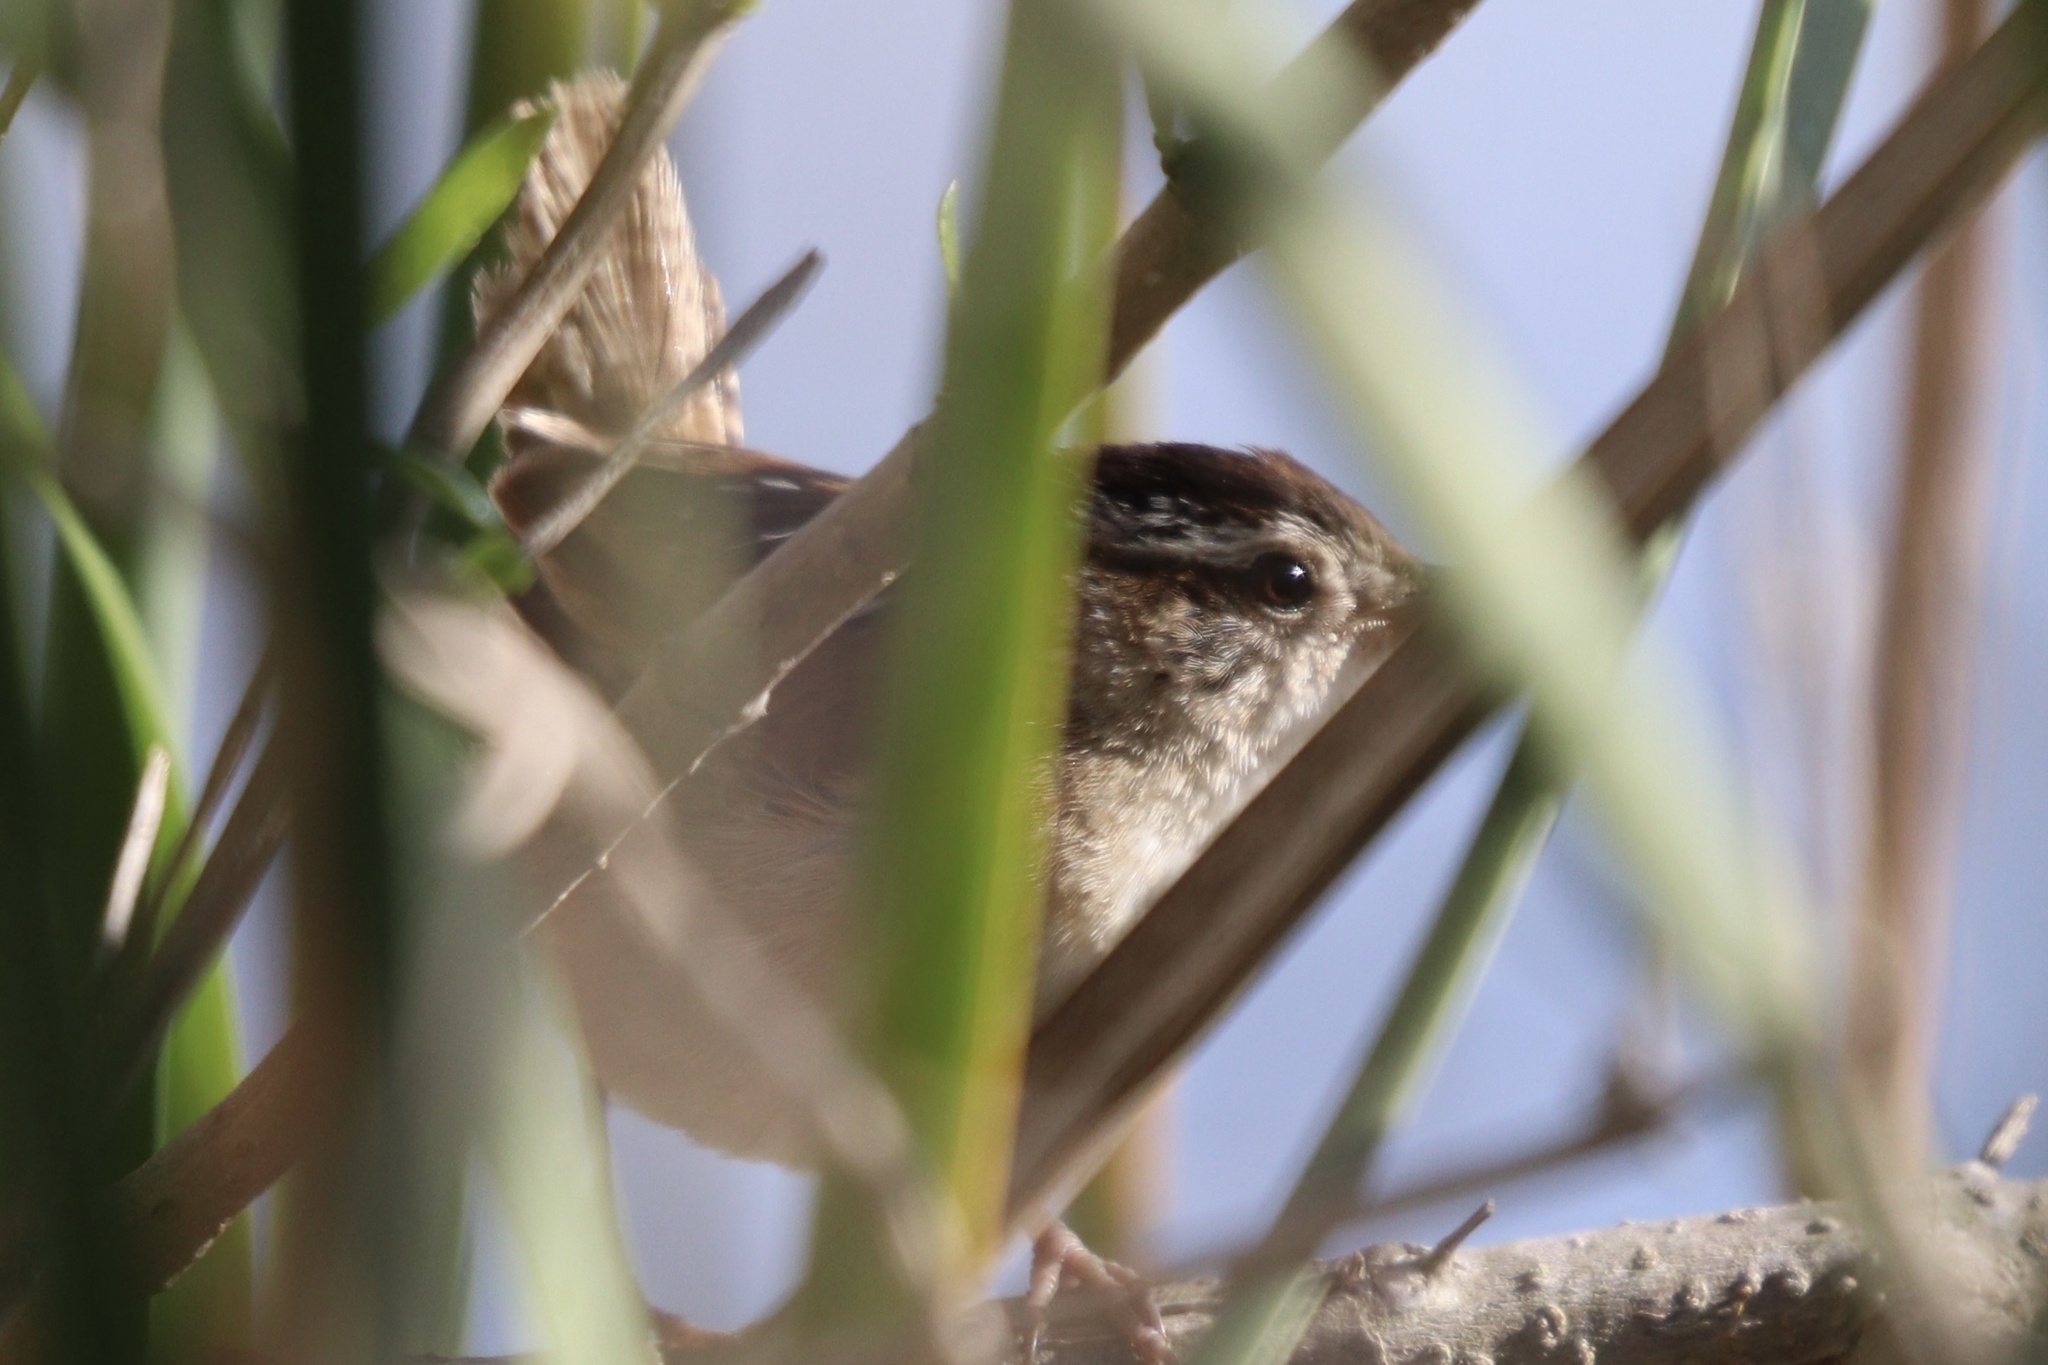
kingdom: Animalia
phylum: Chordata
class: Aves
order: Passeriformes
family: Troglodytidae
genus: Cistothorus
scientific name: Cistothorus palustris
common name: Marsh wren
